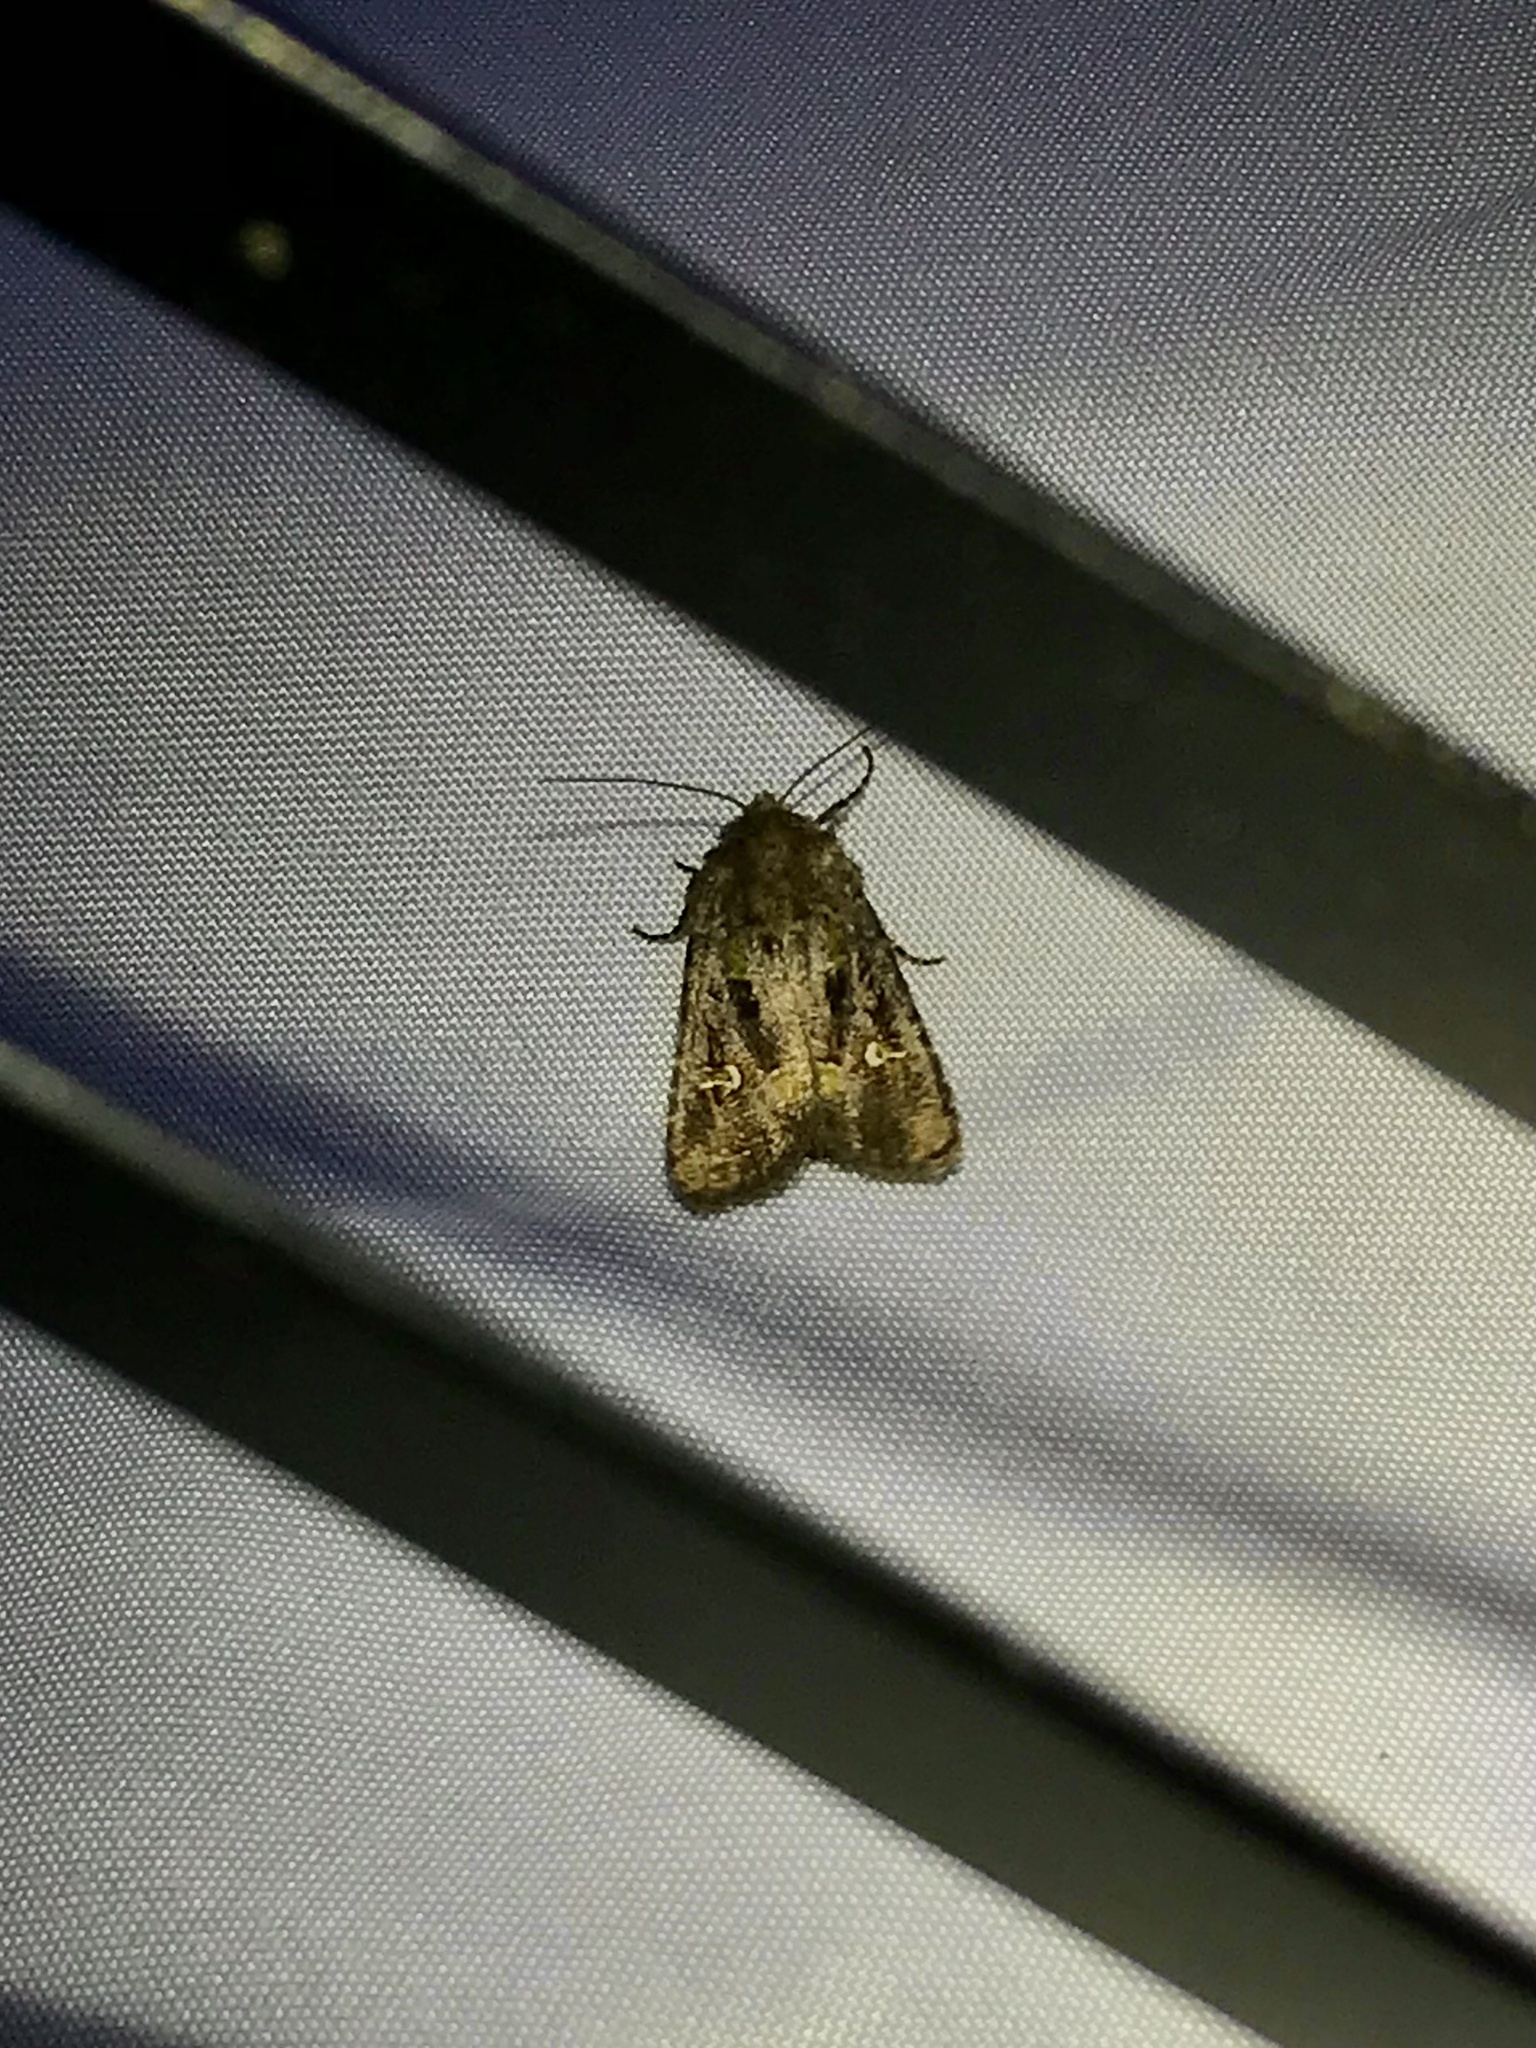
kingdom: Animalia
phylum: Arthropoda
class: Insecta
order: Lepidoptera
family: Noctuidae
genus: Lacinipolia
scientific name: Lacinipolia renigera
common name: Kidney-spotted minor
